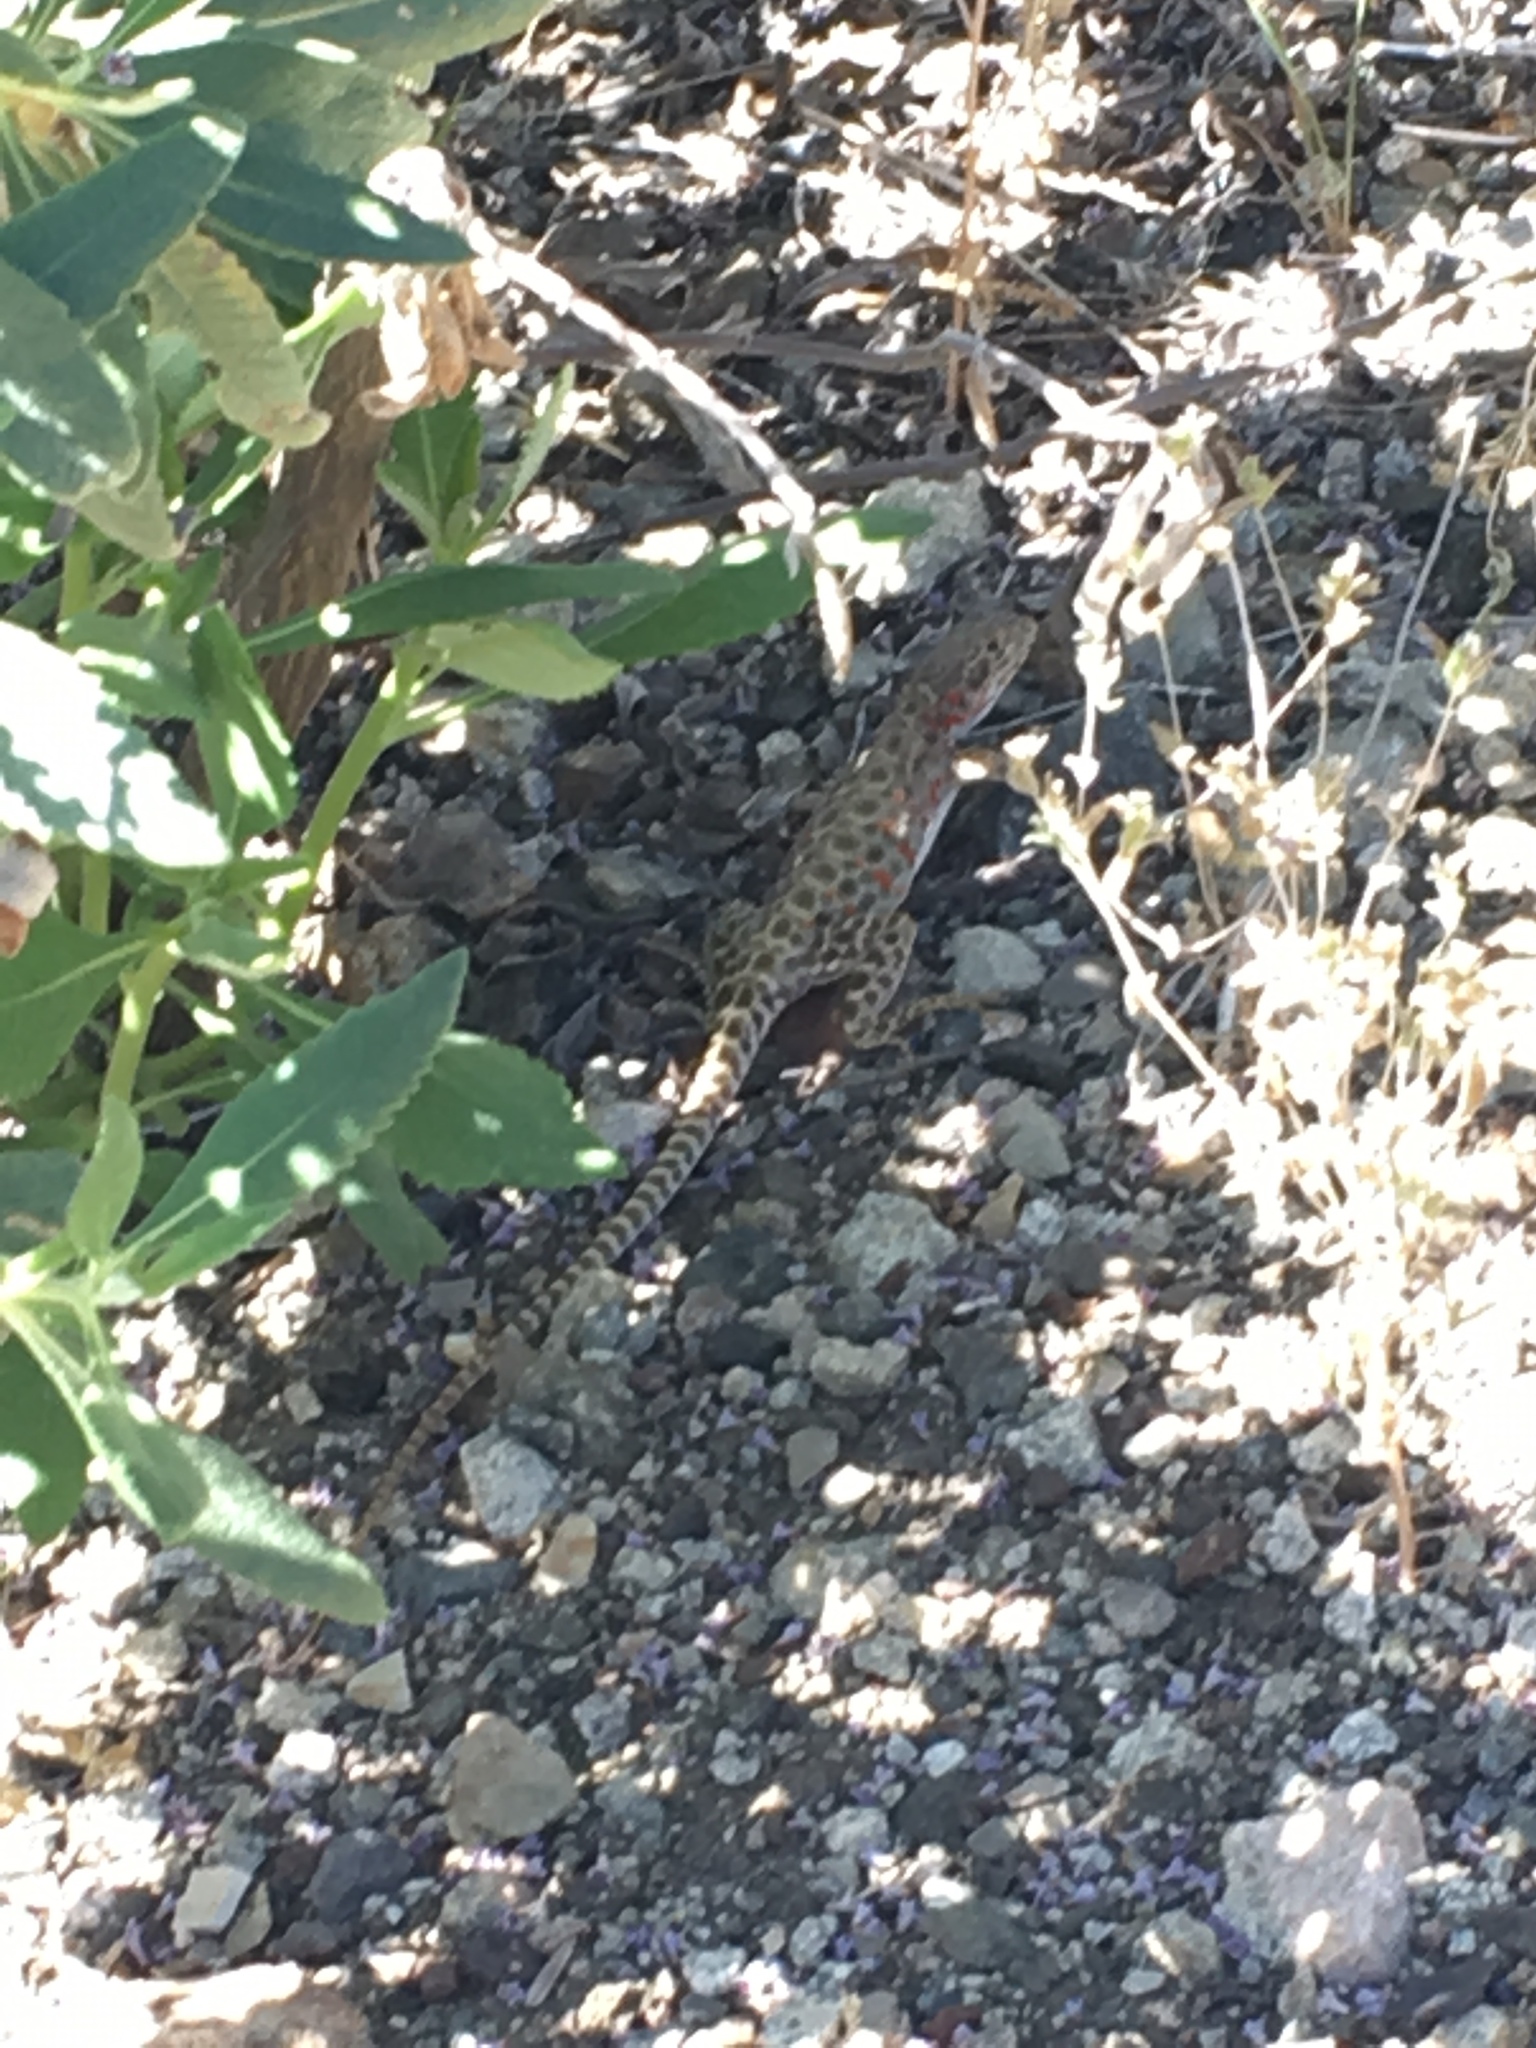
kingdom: Animalia
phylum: Chordata
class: Squamata
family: Crotaphytidae
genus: Gambelia
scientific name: Gambelia wislizenii
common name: Longnose leopard lizard
